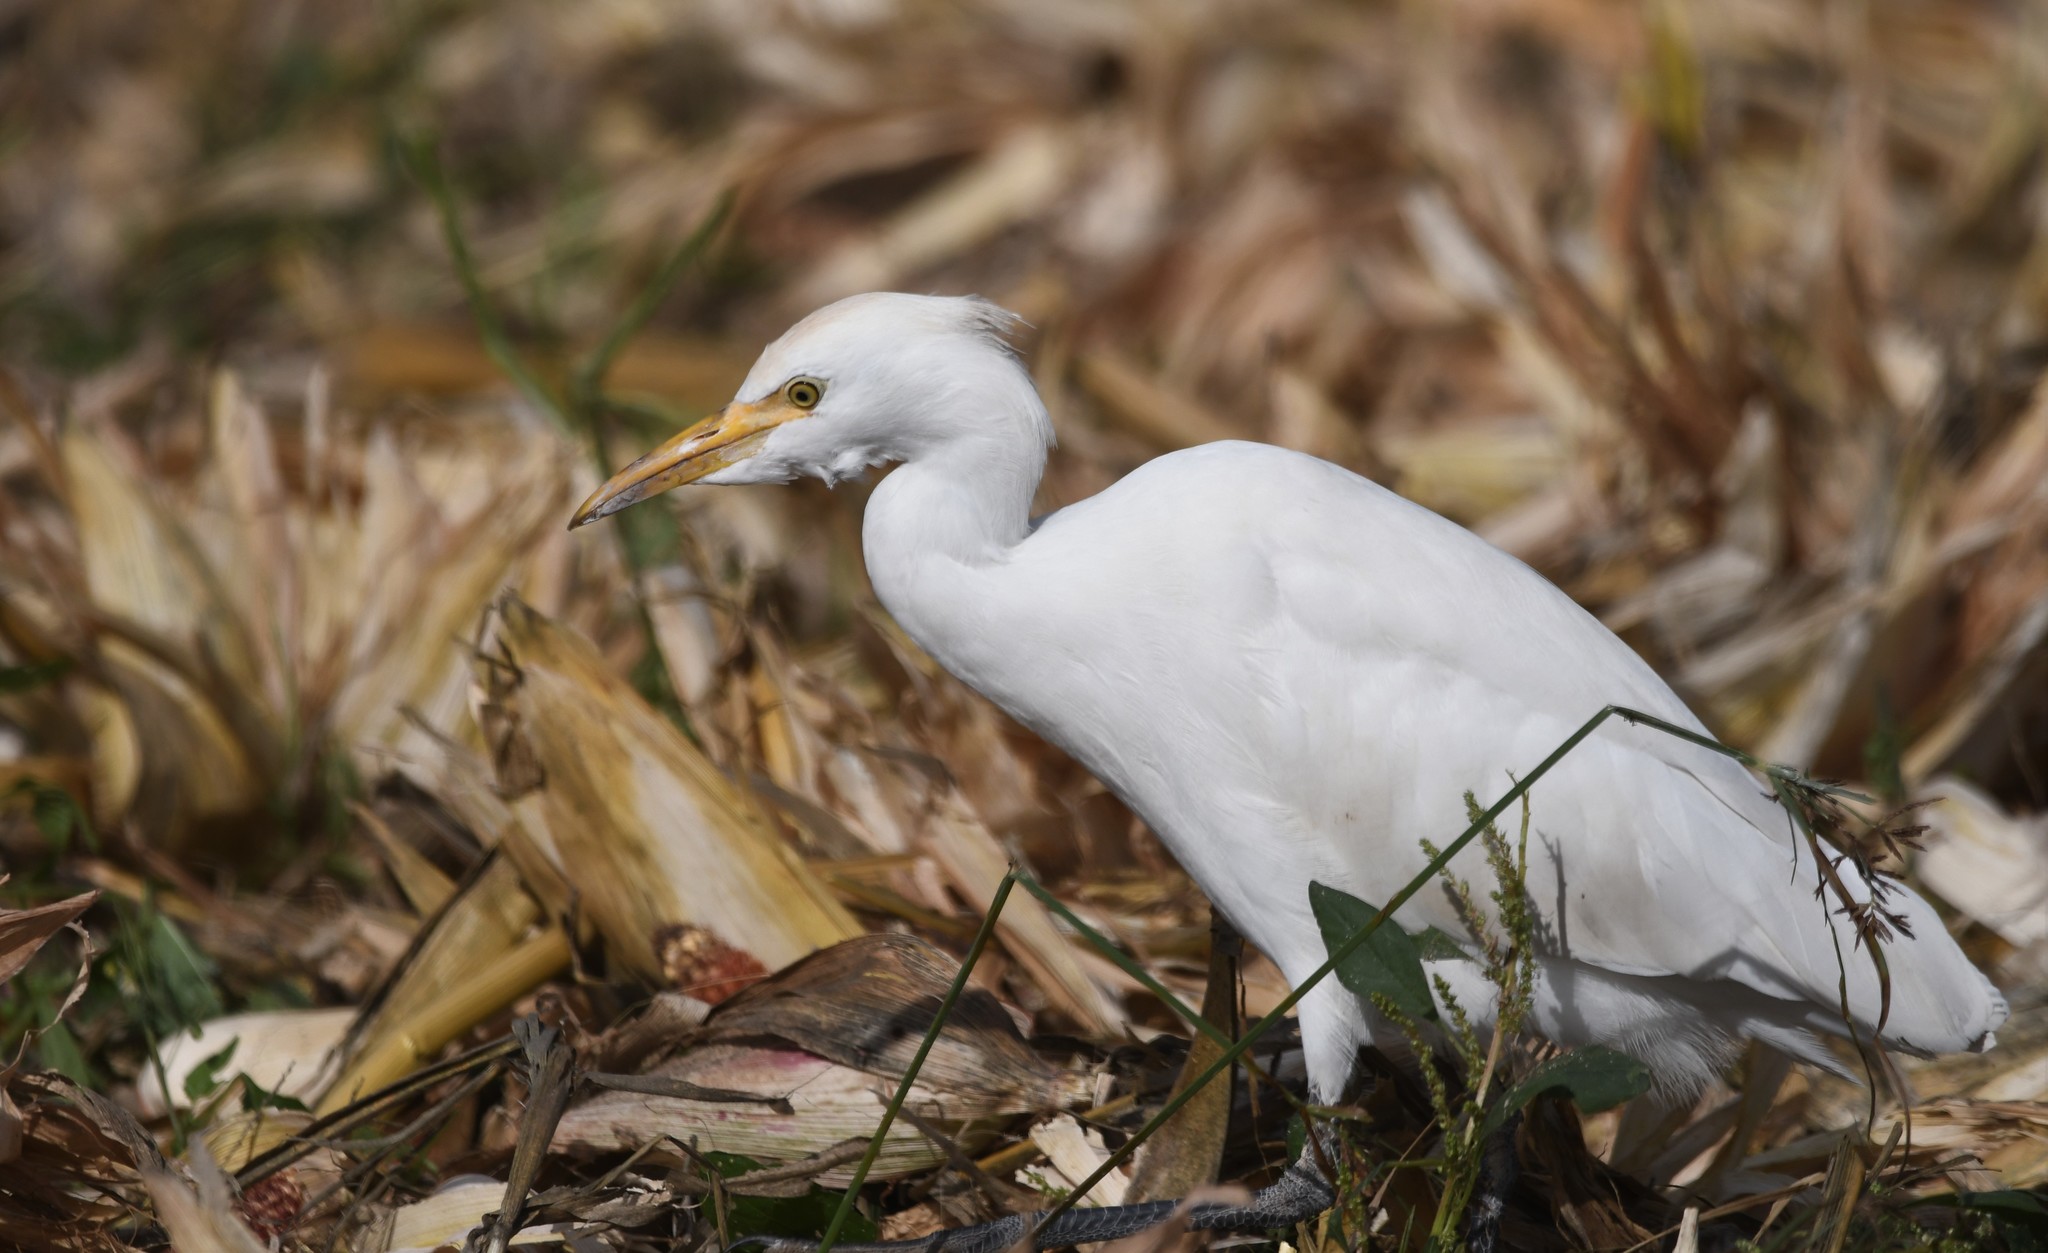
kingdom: Animalia
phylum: Chordata
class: Aves
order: Pelecaniformes
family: Ardeidae
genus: Bubulcus
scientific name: Bubulcus ibis
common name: Cattle egret
